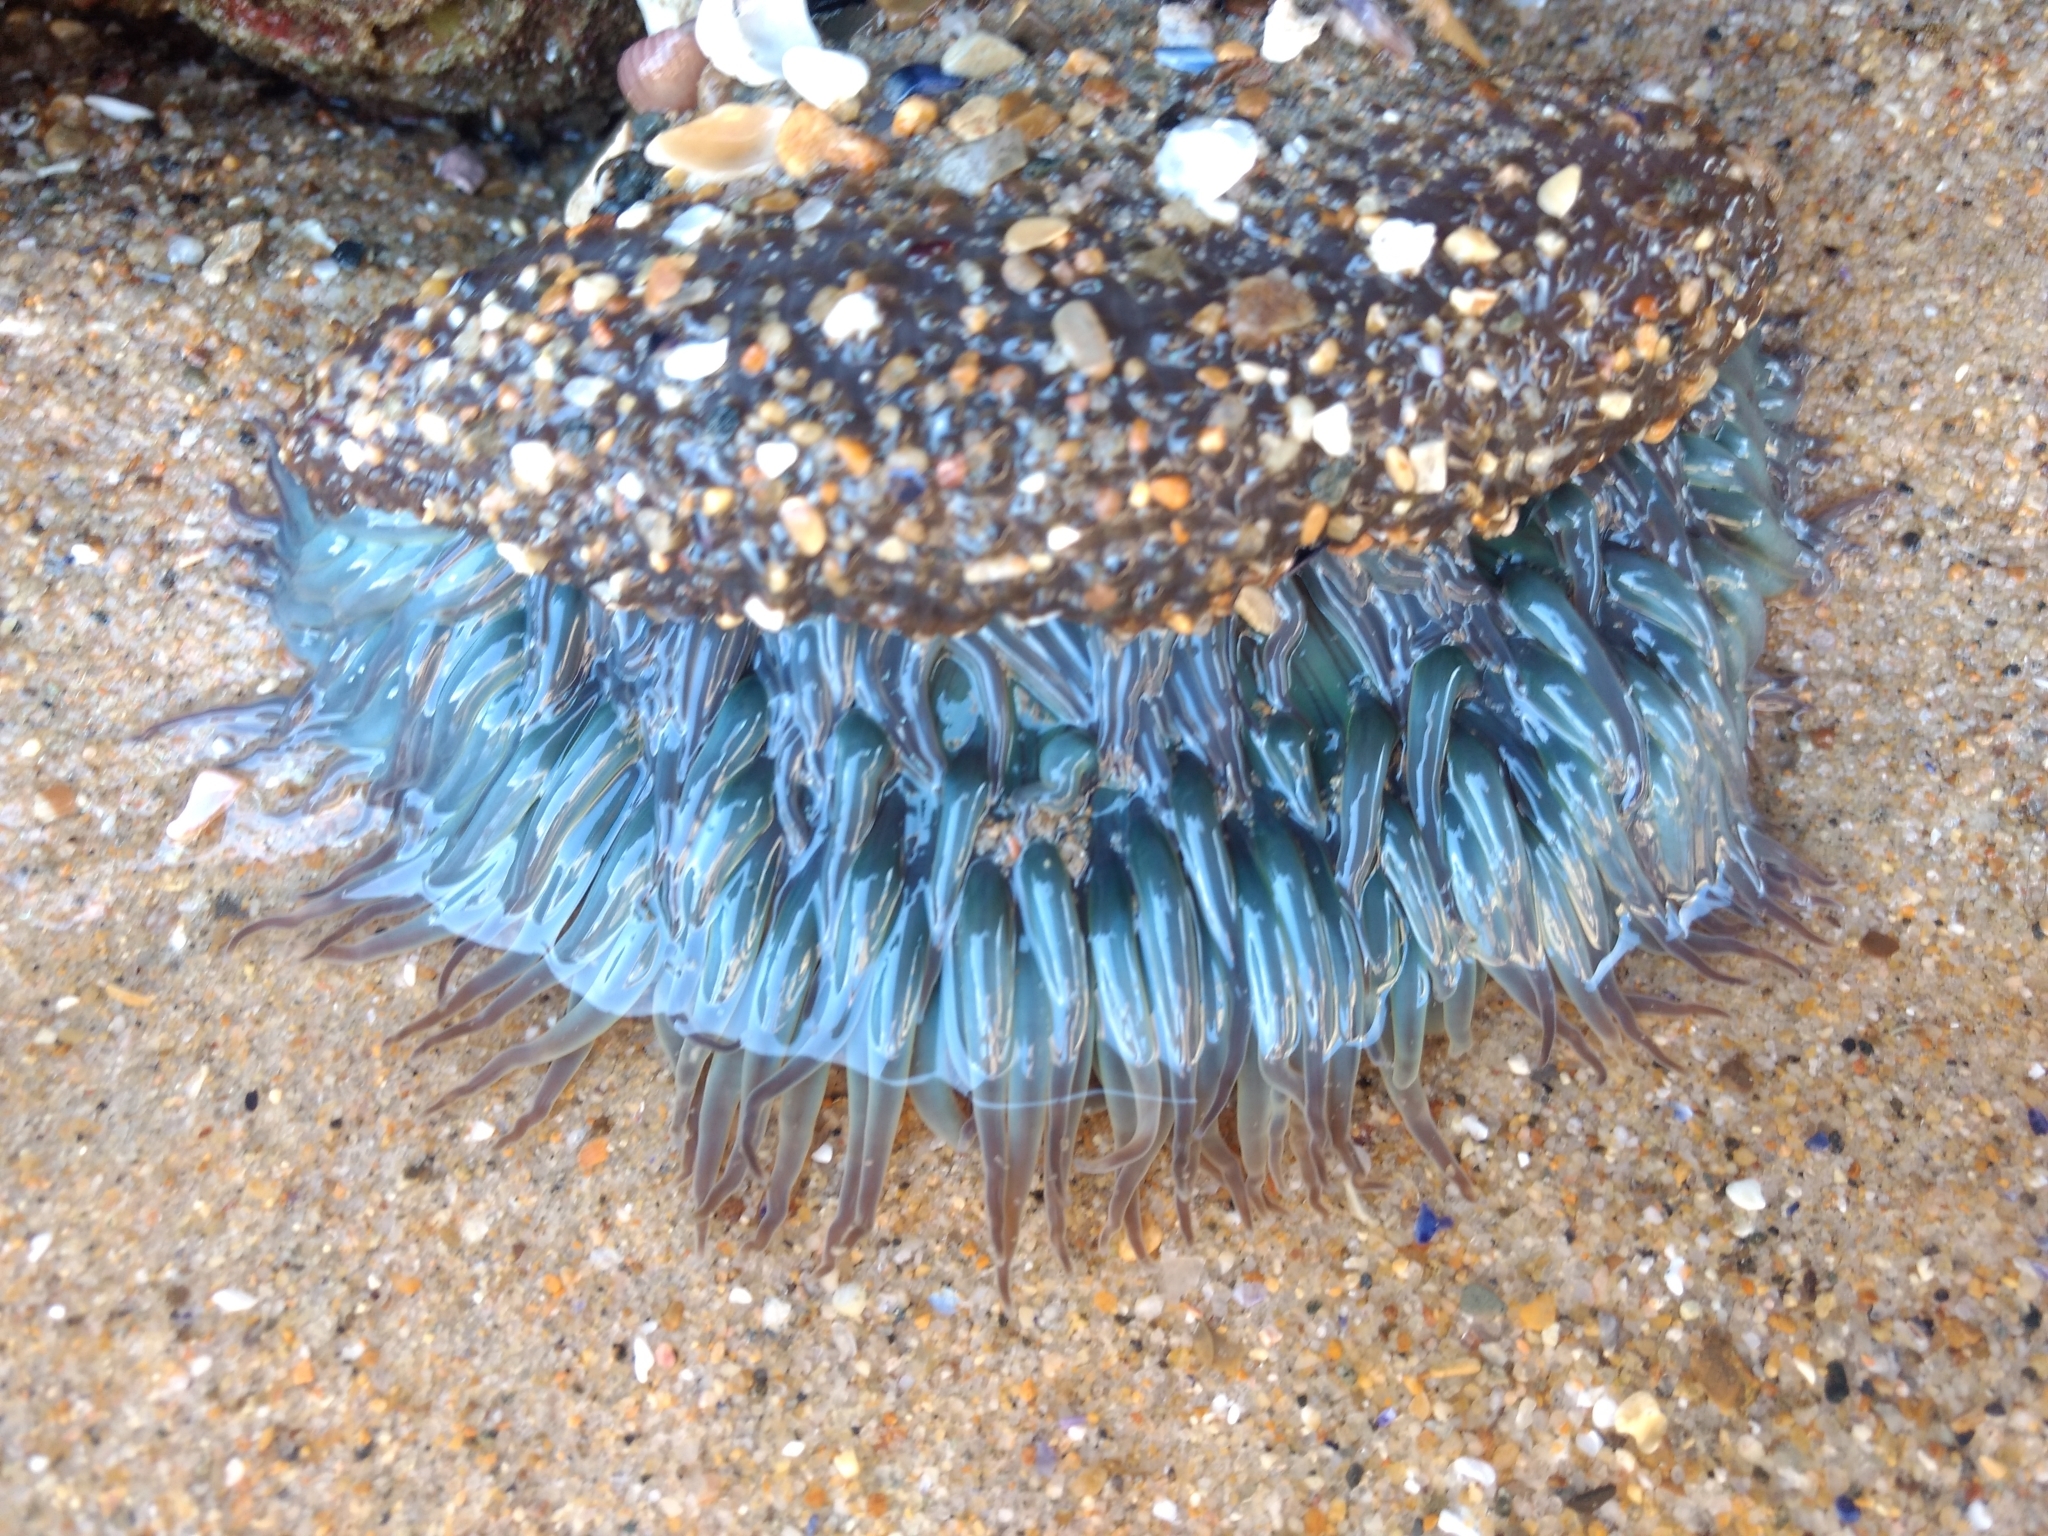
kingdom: Animalia
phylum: Cnidaria
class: Anthozoa
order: Actiniaria
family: Actiniidae
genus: Anthopleura
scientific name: Anthopleura sola
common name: Sun anemone
